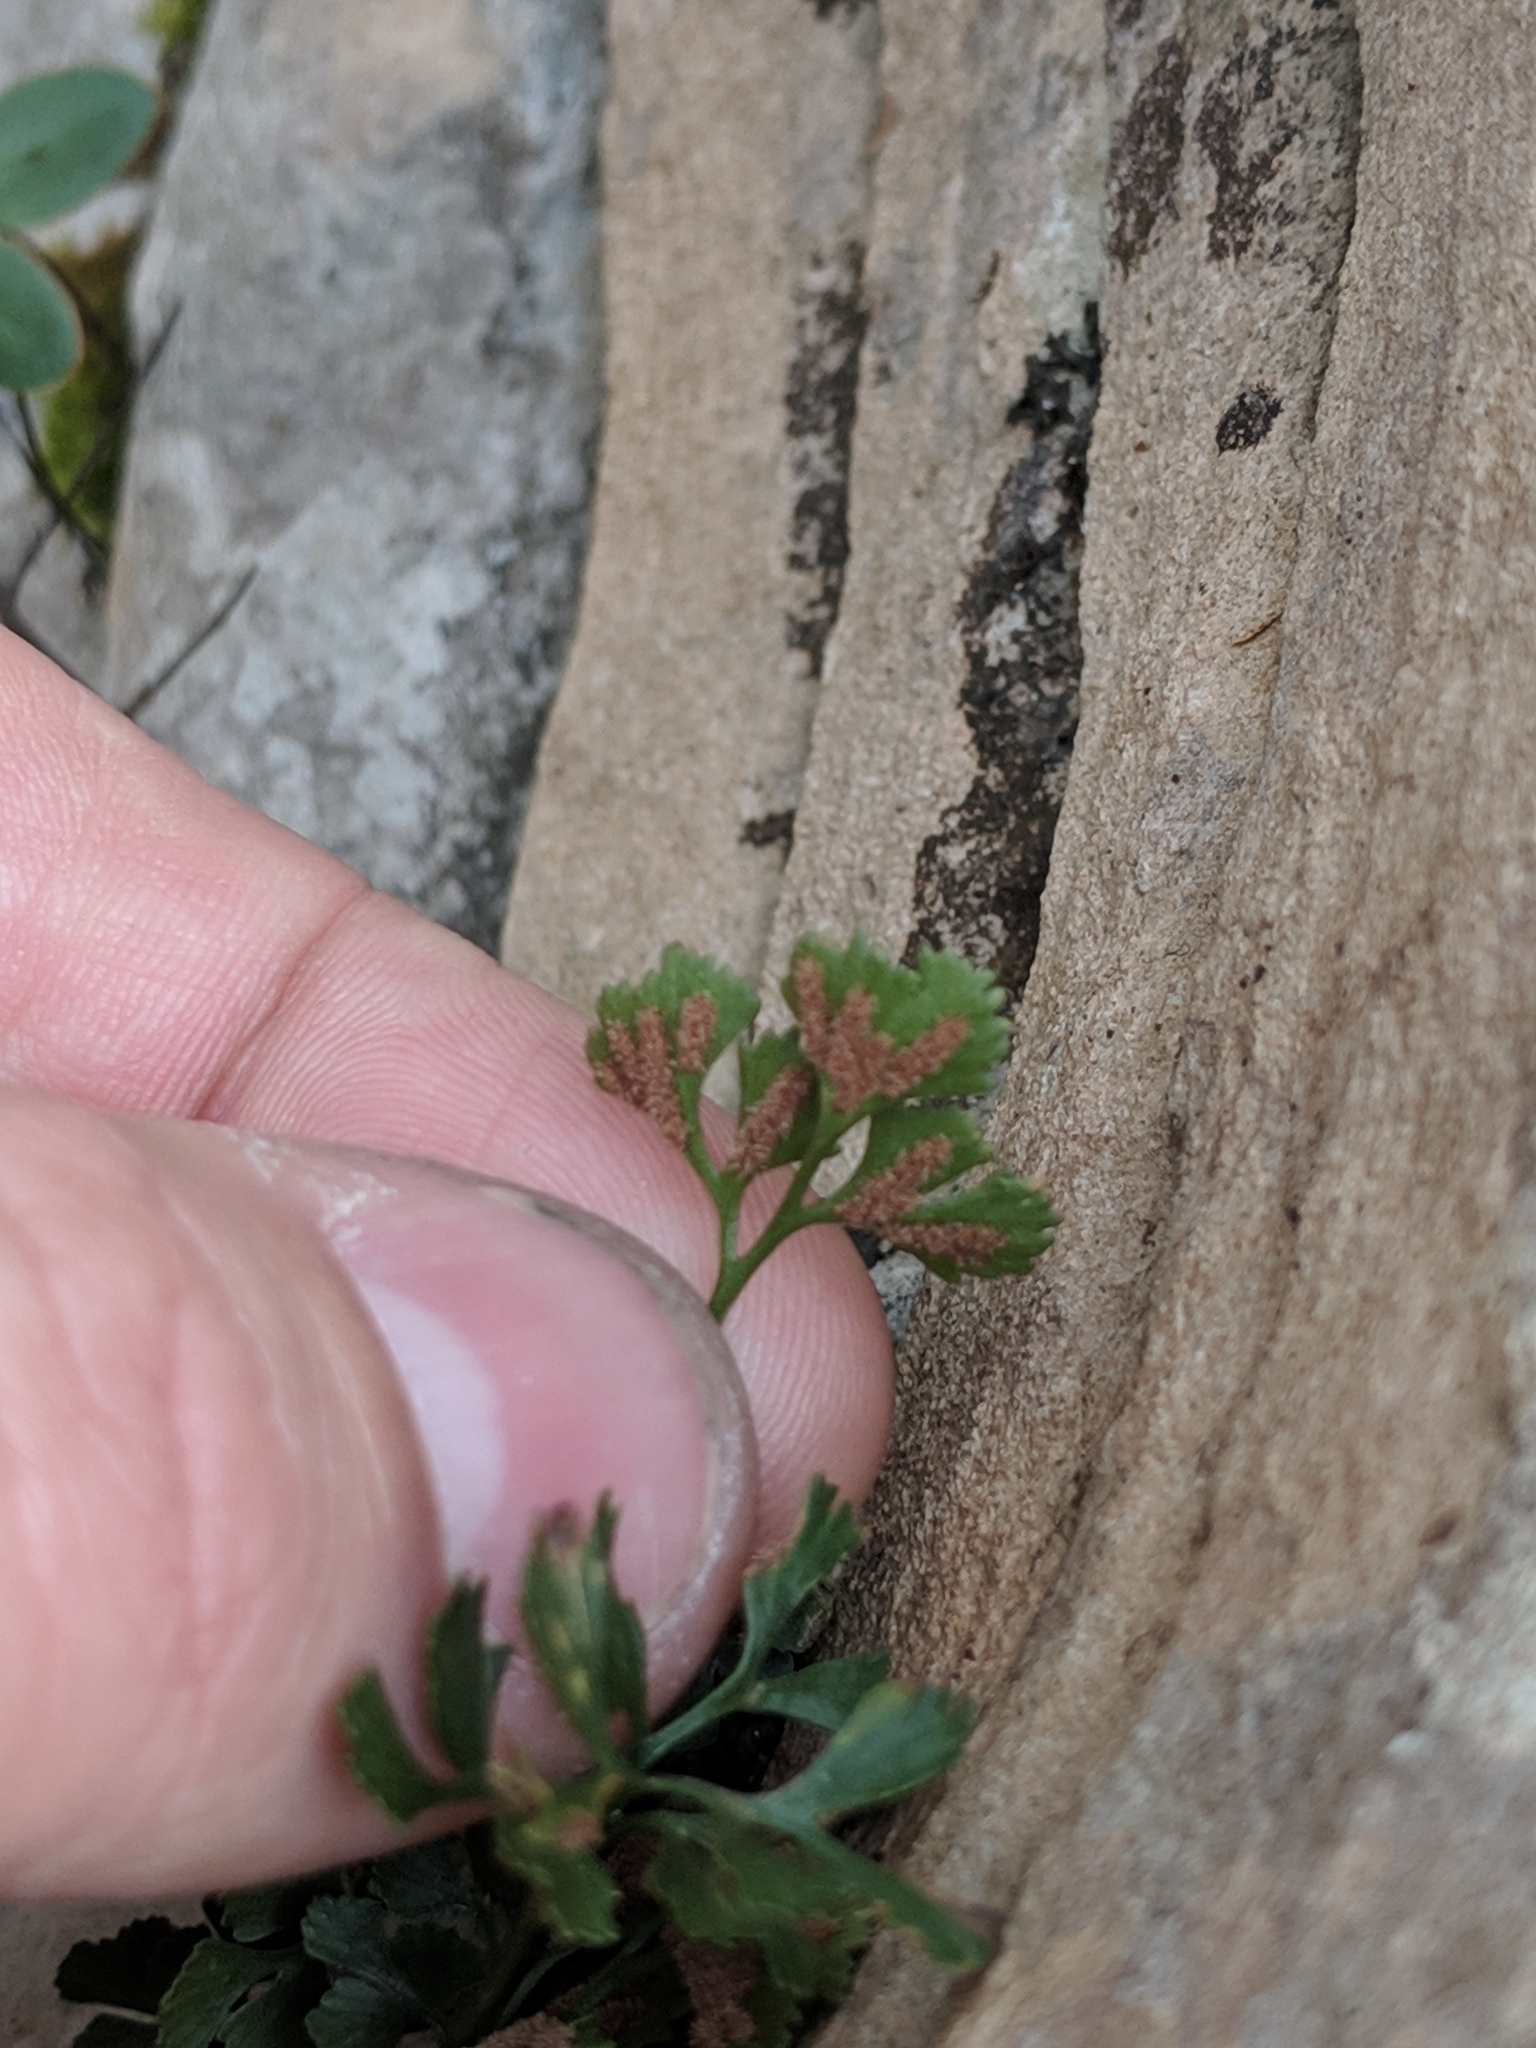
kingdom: Plantae
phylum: Tracheophyta
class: Polypodiopsida
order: Polypodiales
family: Aspleniaceae
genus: Asplenium
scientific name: Asplenium ruta-muraria
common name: Wall-rue
